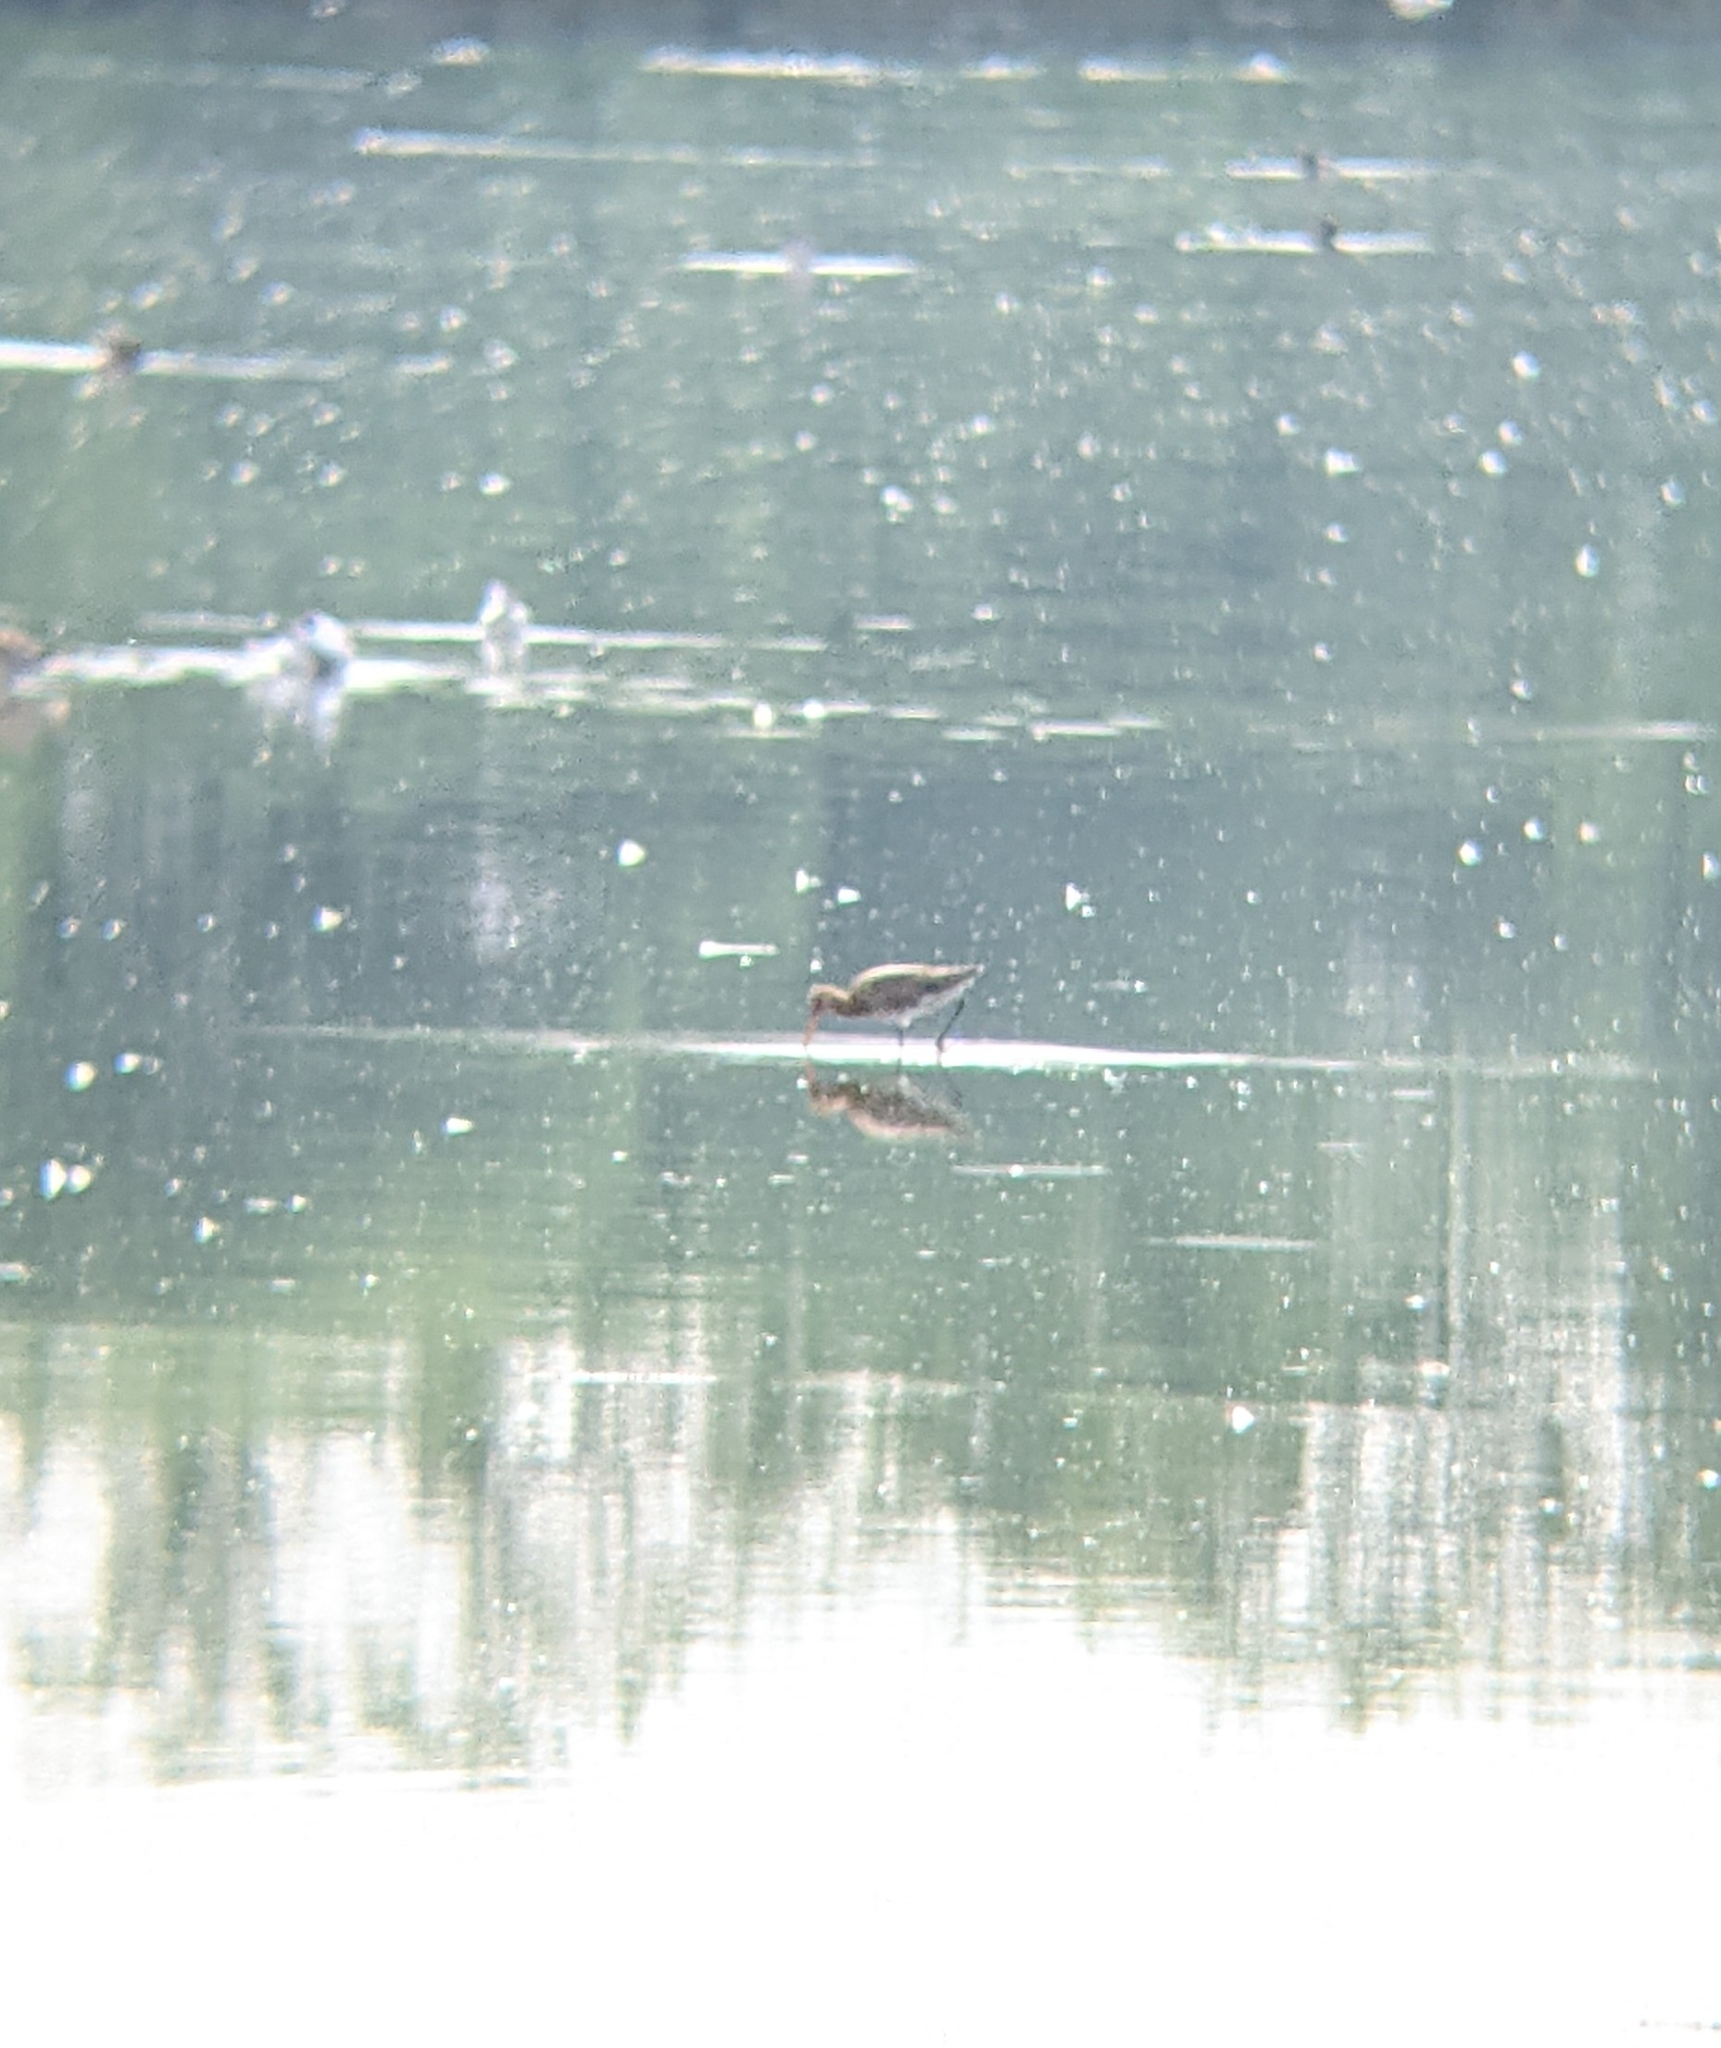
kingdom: Animalia
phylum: Chordata
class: Aves
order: Charadriiformes
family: Scolopacidae
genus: Limosa
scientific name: Limosa limosa
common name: Black-tailed godwit
